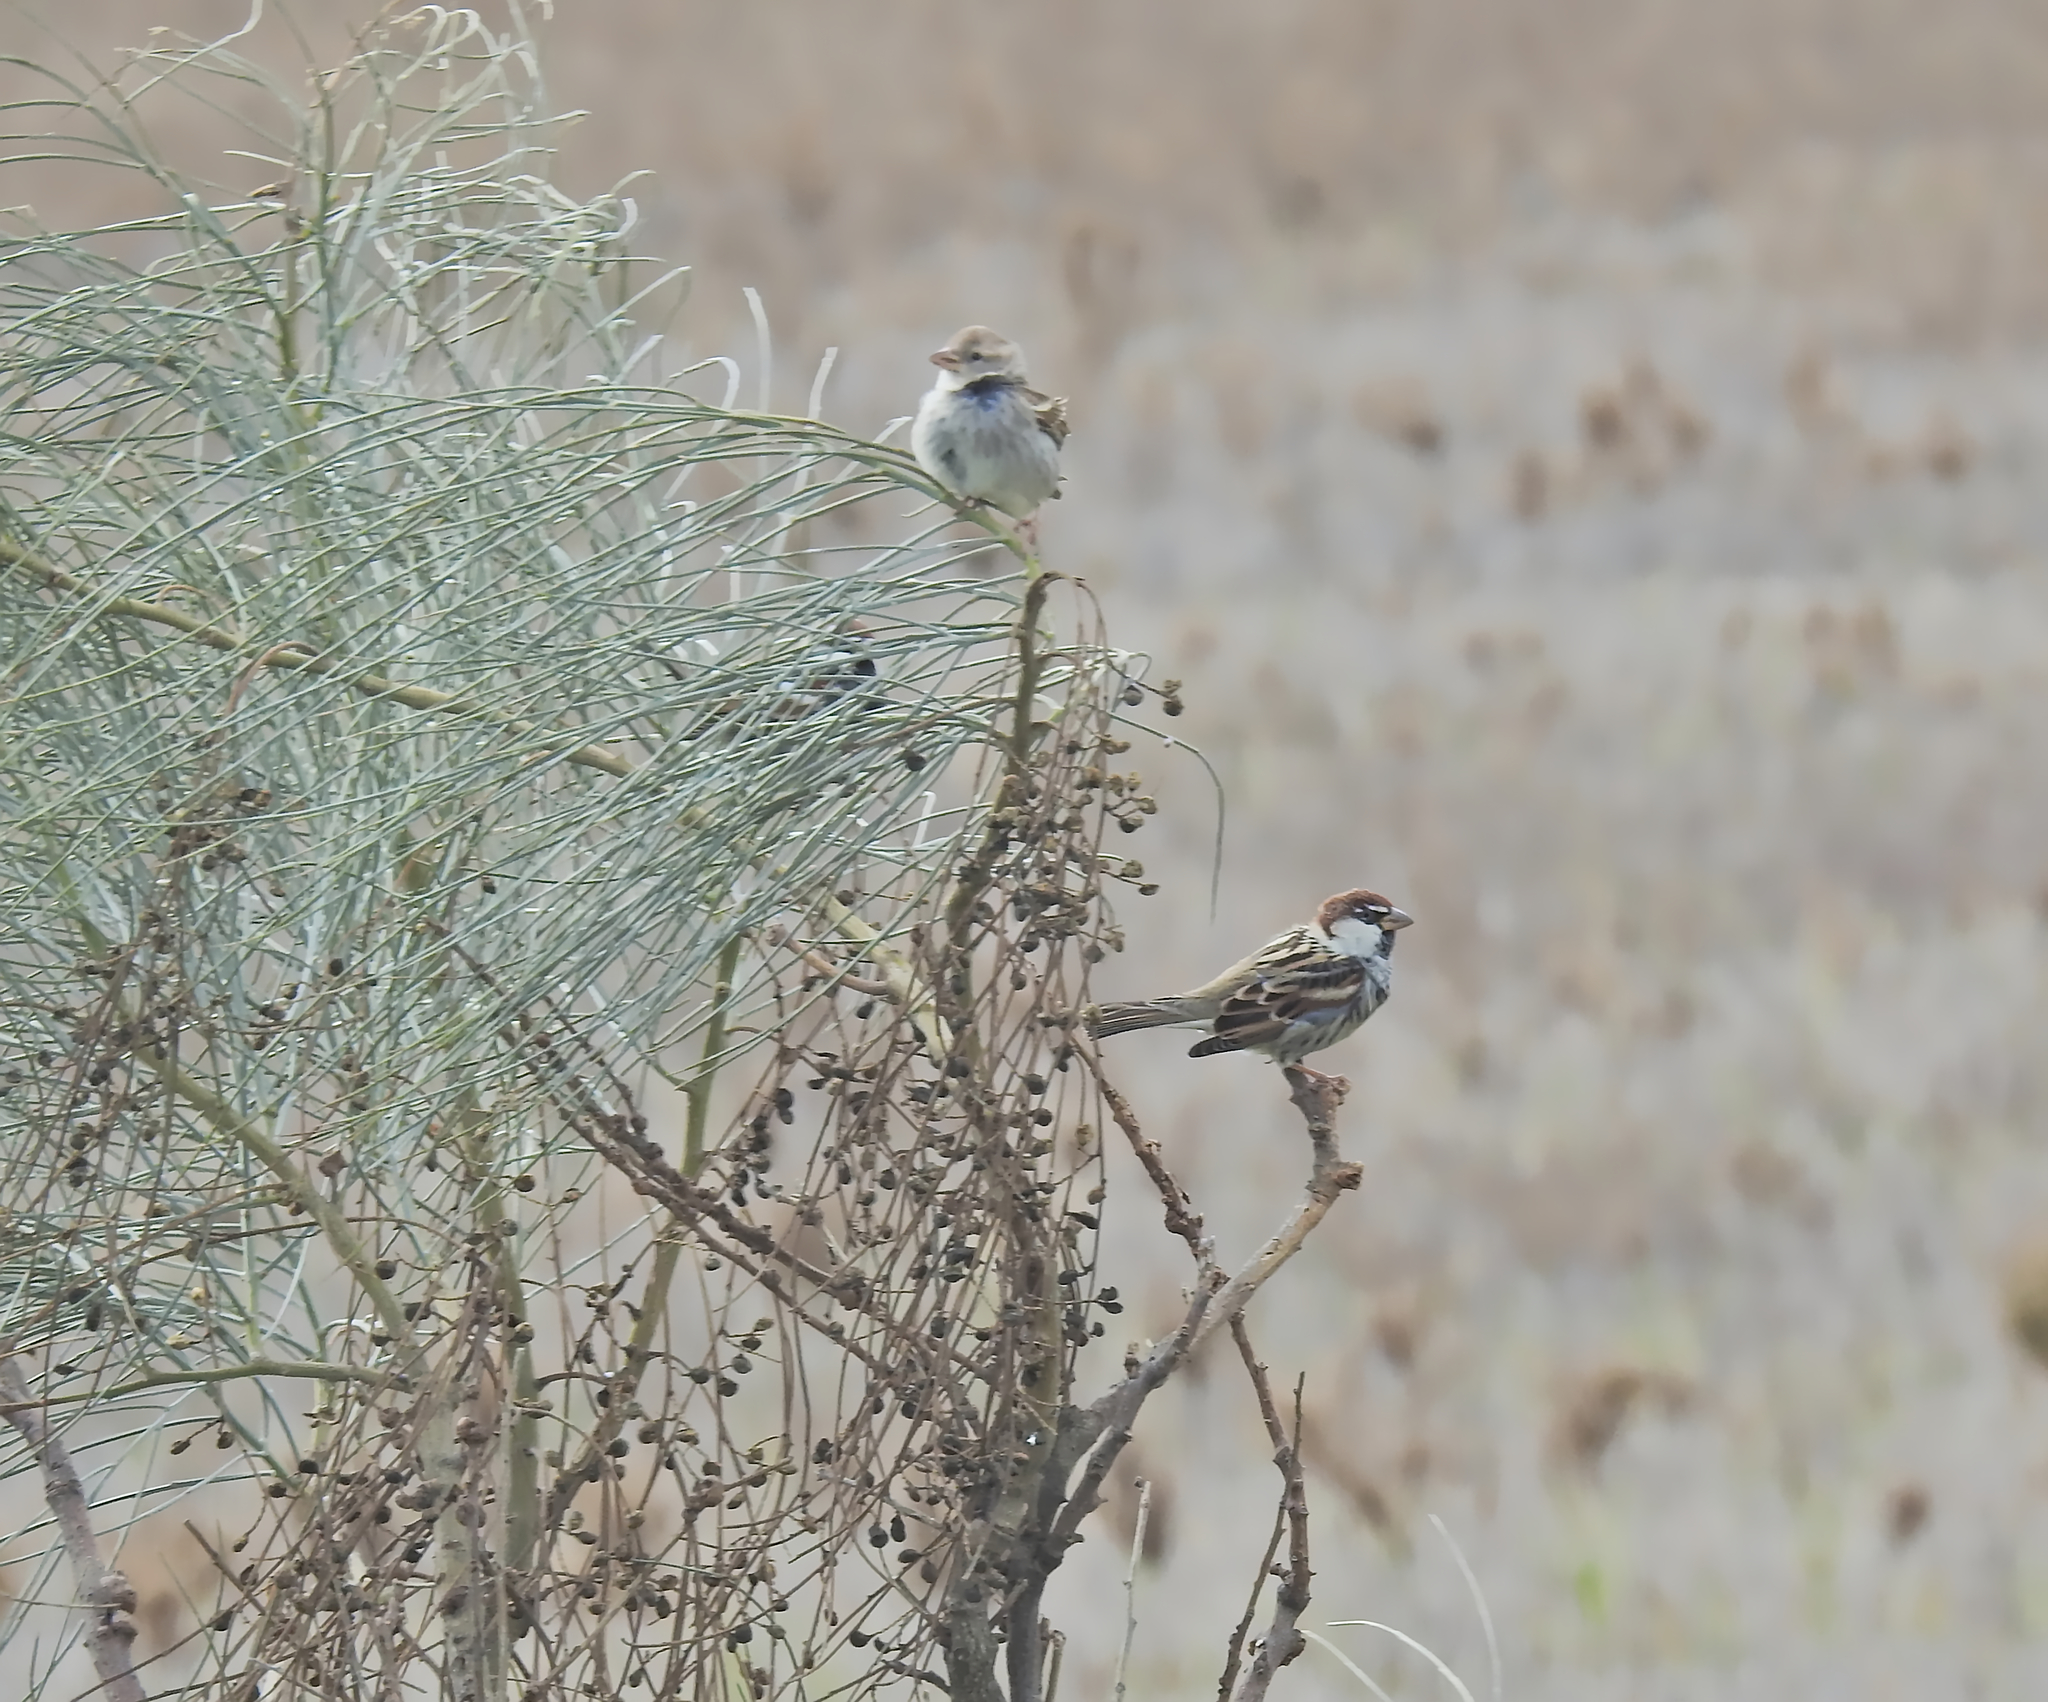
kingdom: Animalia
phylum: Chordata
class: Aves
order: Passeriformes
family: Passeridae
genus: Passer
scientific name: Passer hispaniolensis
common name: Spanish sparrow
